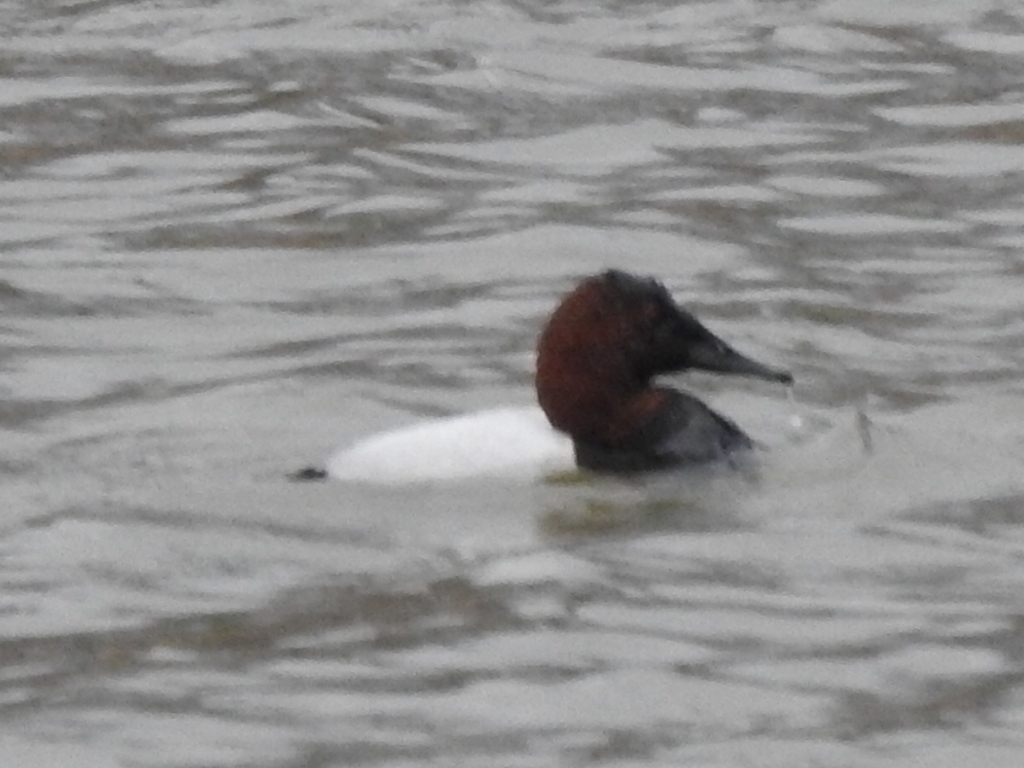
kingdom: Animalia
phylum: Chordata
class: Aves
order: Anseriformes
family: Anatidae
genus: Aythya
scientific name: Aythya valisineria
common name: Canvasback
